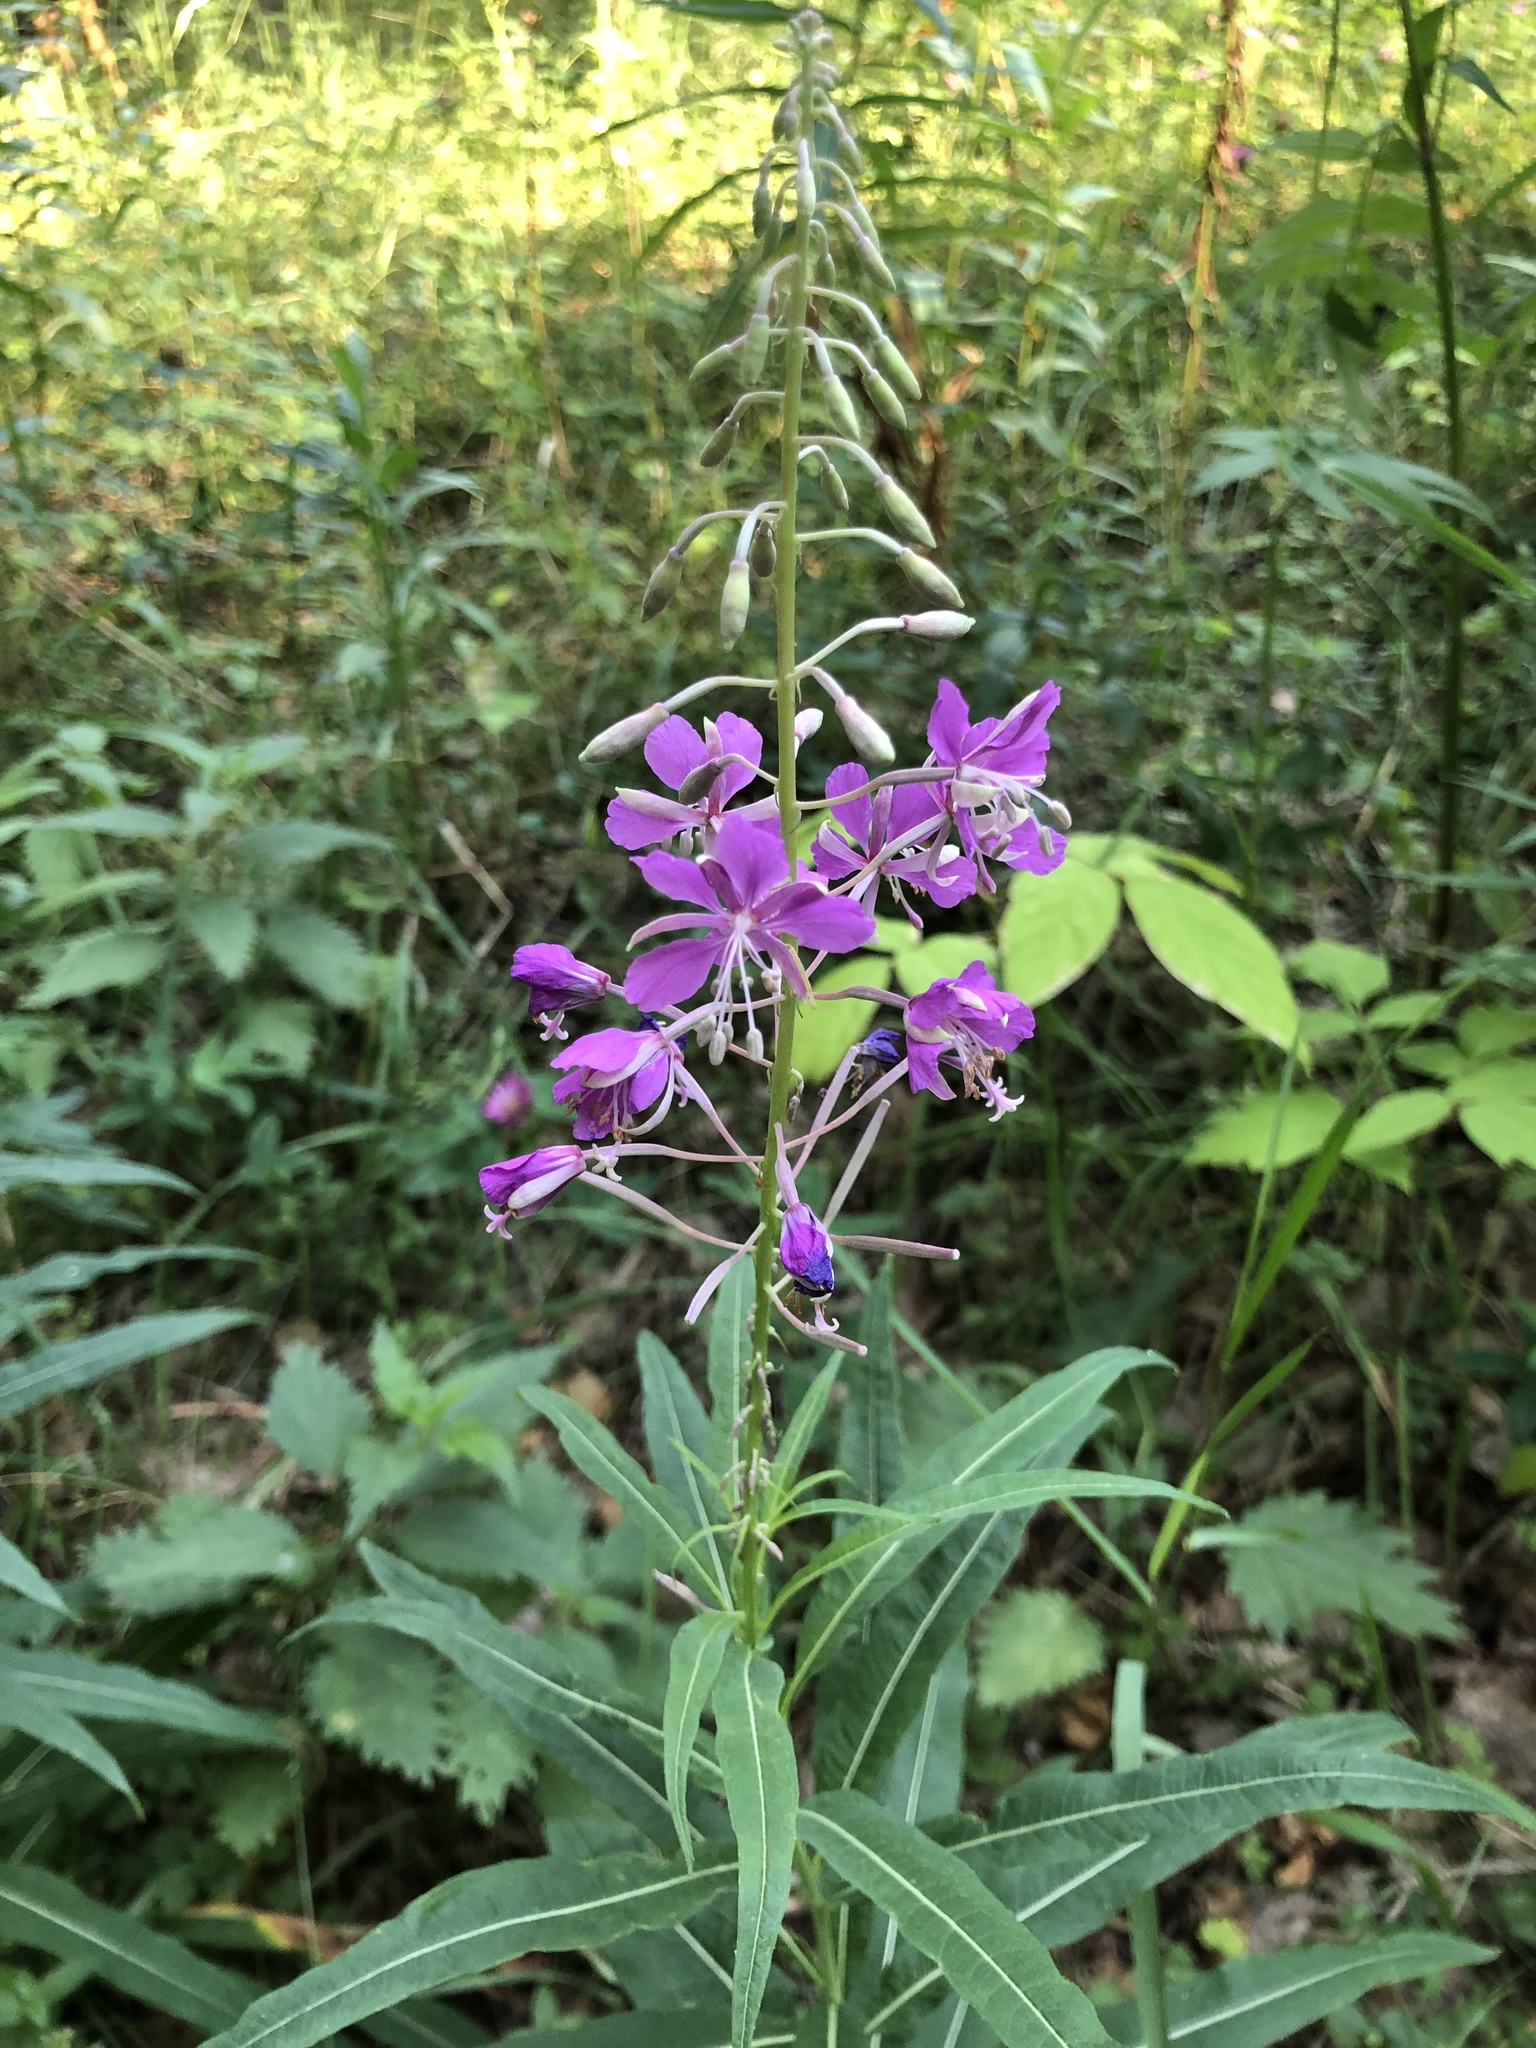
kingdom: Plantae
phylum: Tracheophyta
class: Magnoliopsida
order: Myrtales
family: Onagraceae
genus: Chamaenerion
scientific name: Chamaenerion angustifolium
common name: Fireweed
